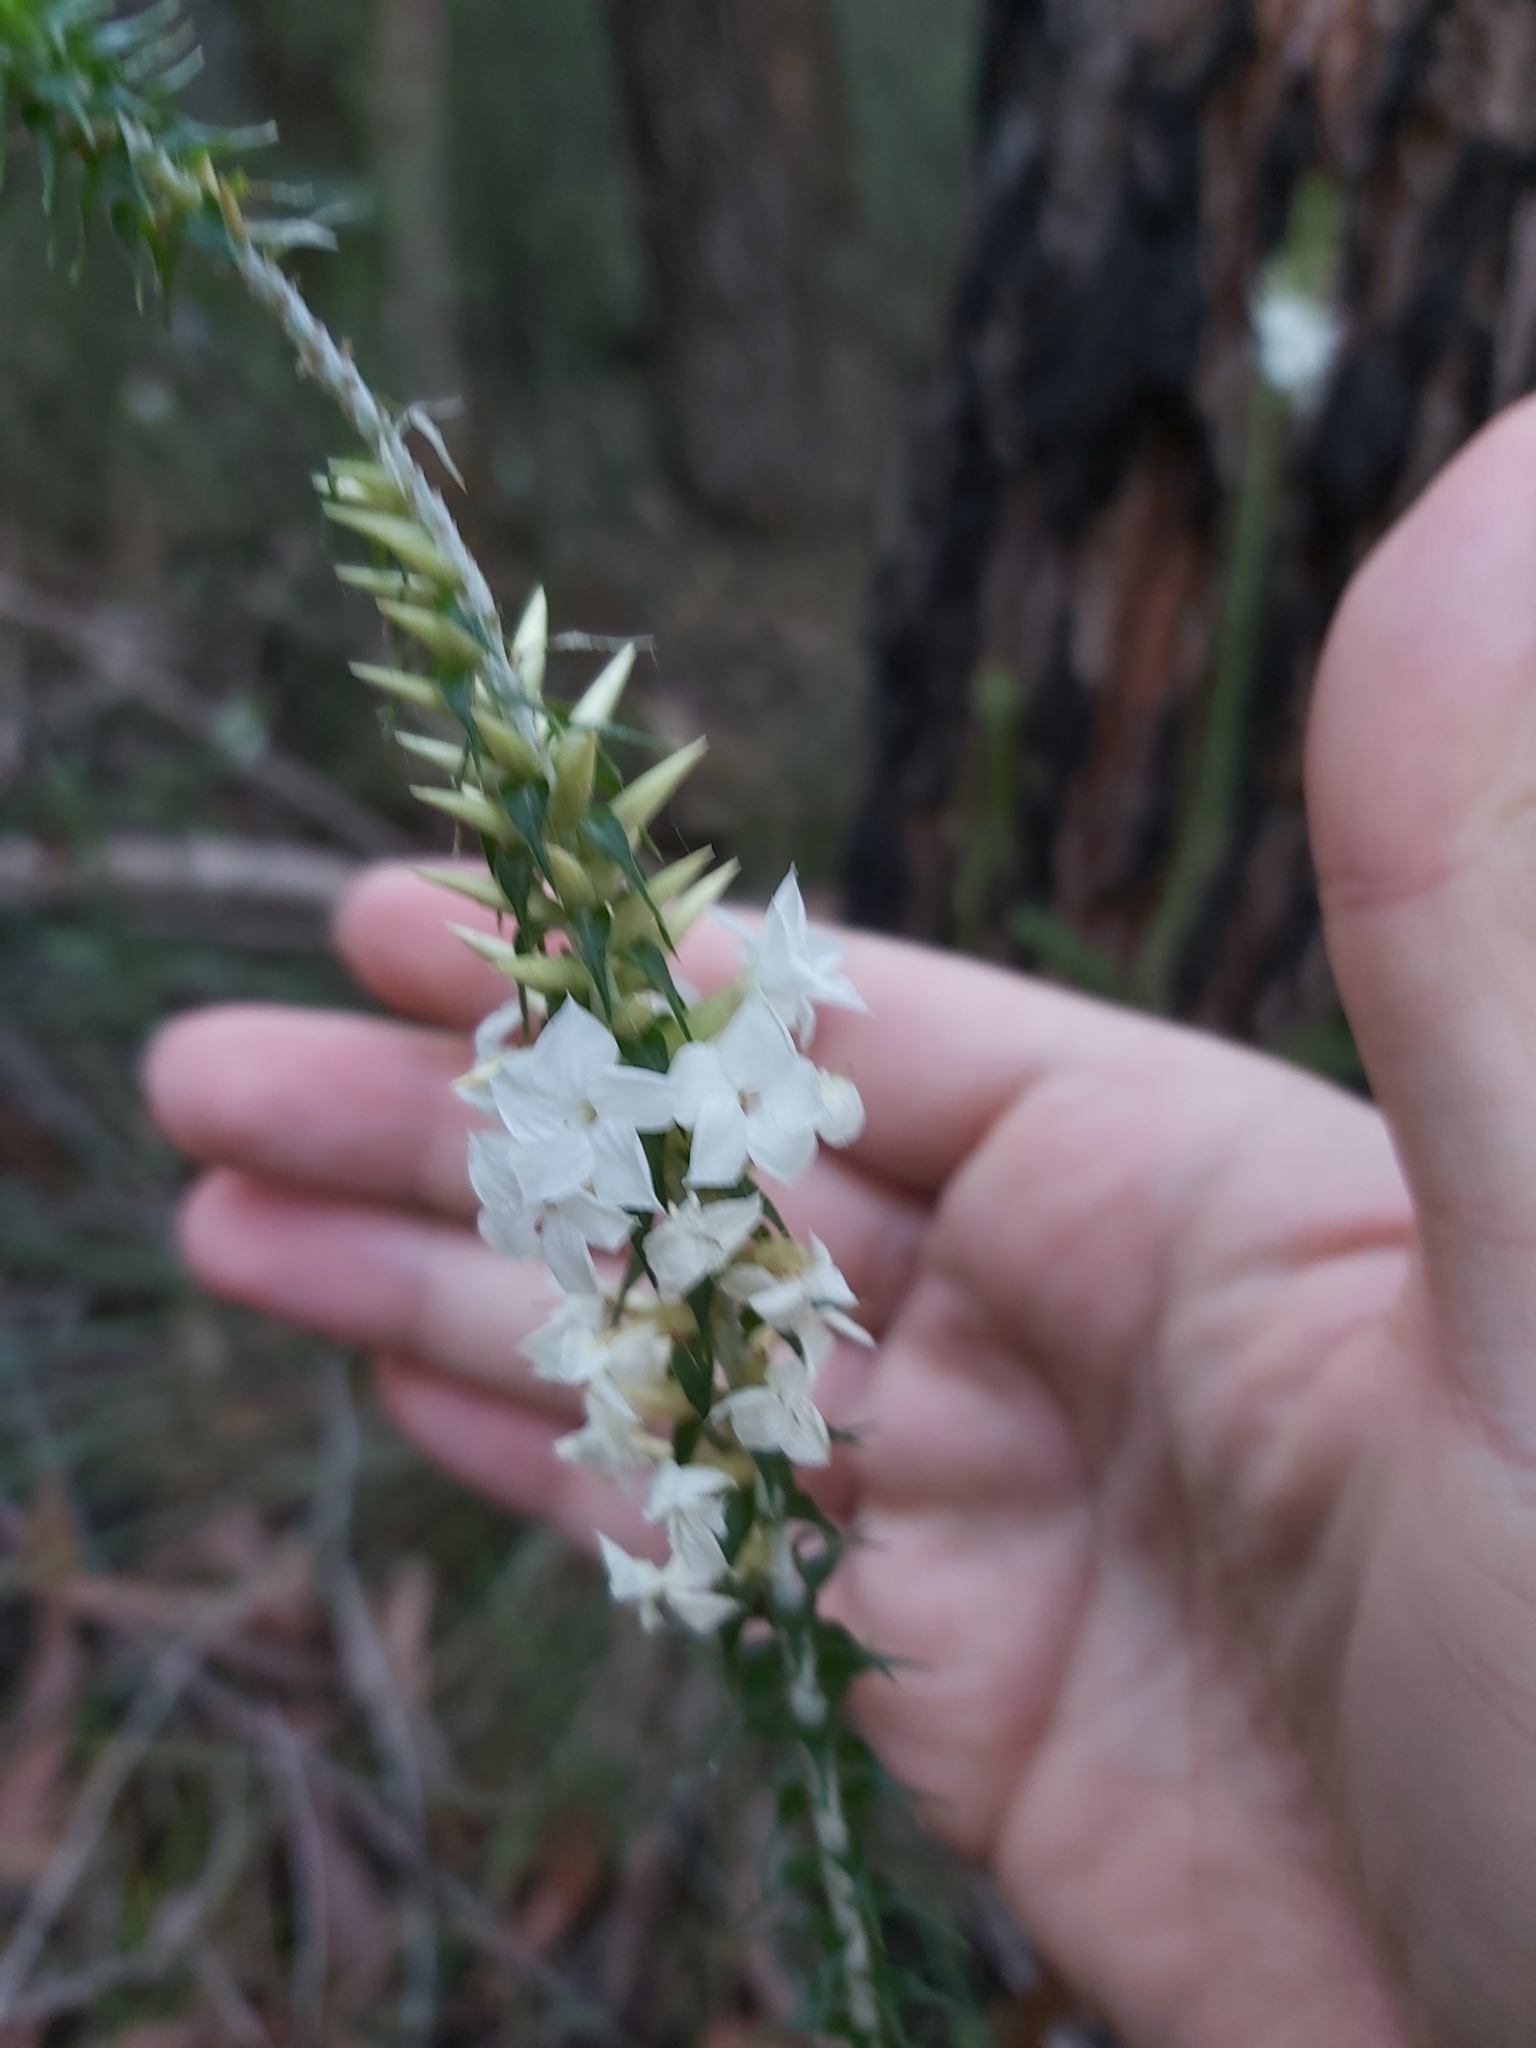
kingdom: Plantae
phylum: Tracheophyta
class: Magnoliopsida
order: Ericales
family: Ericaceae
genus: Woollsia
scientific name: Woollsia pungens
